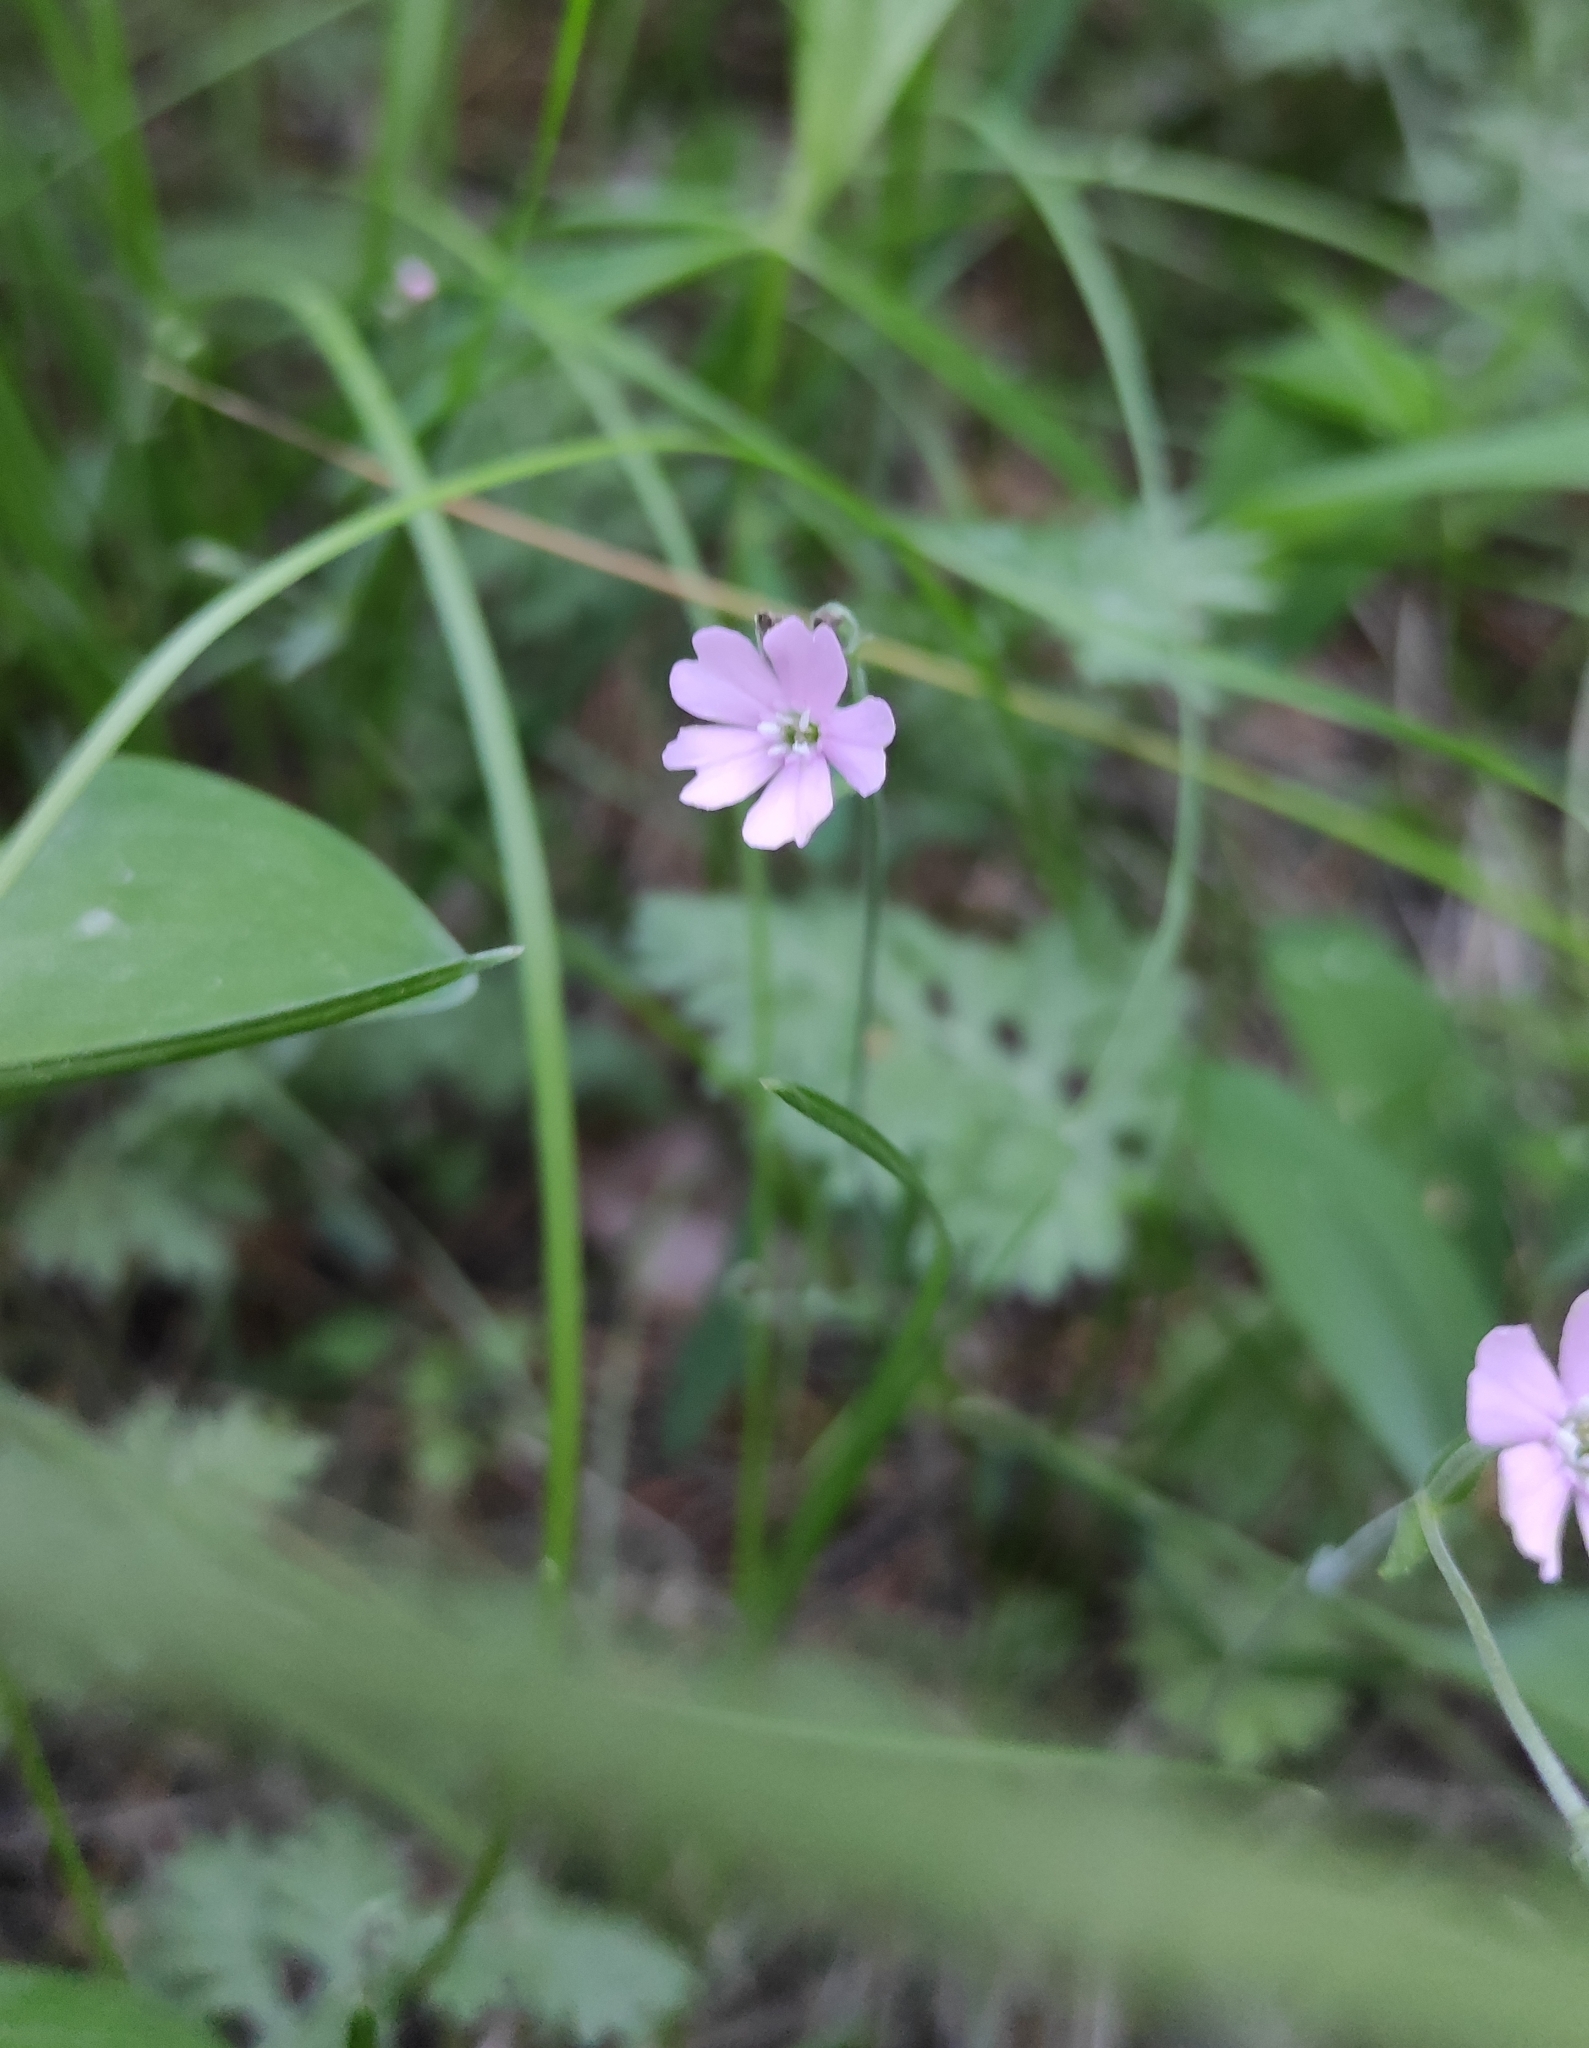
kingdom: Plantae
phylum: Tracheophyta
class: Magnoliopsida
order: Caryophyllales
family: Caryophyllaceae
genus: Silene
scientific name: Silene orientalimongolica
